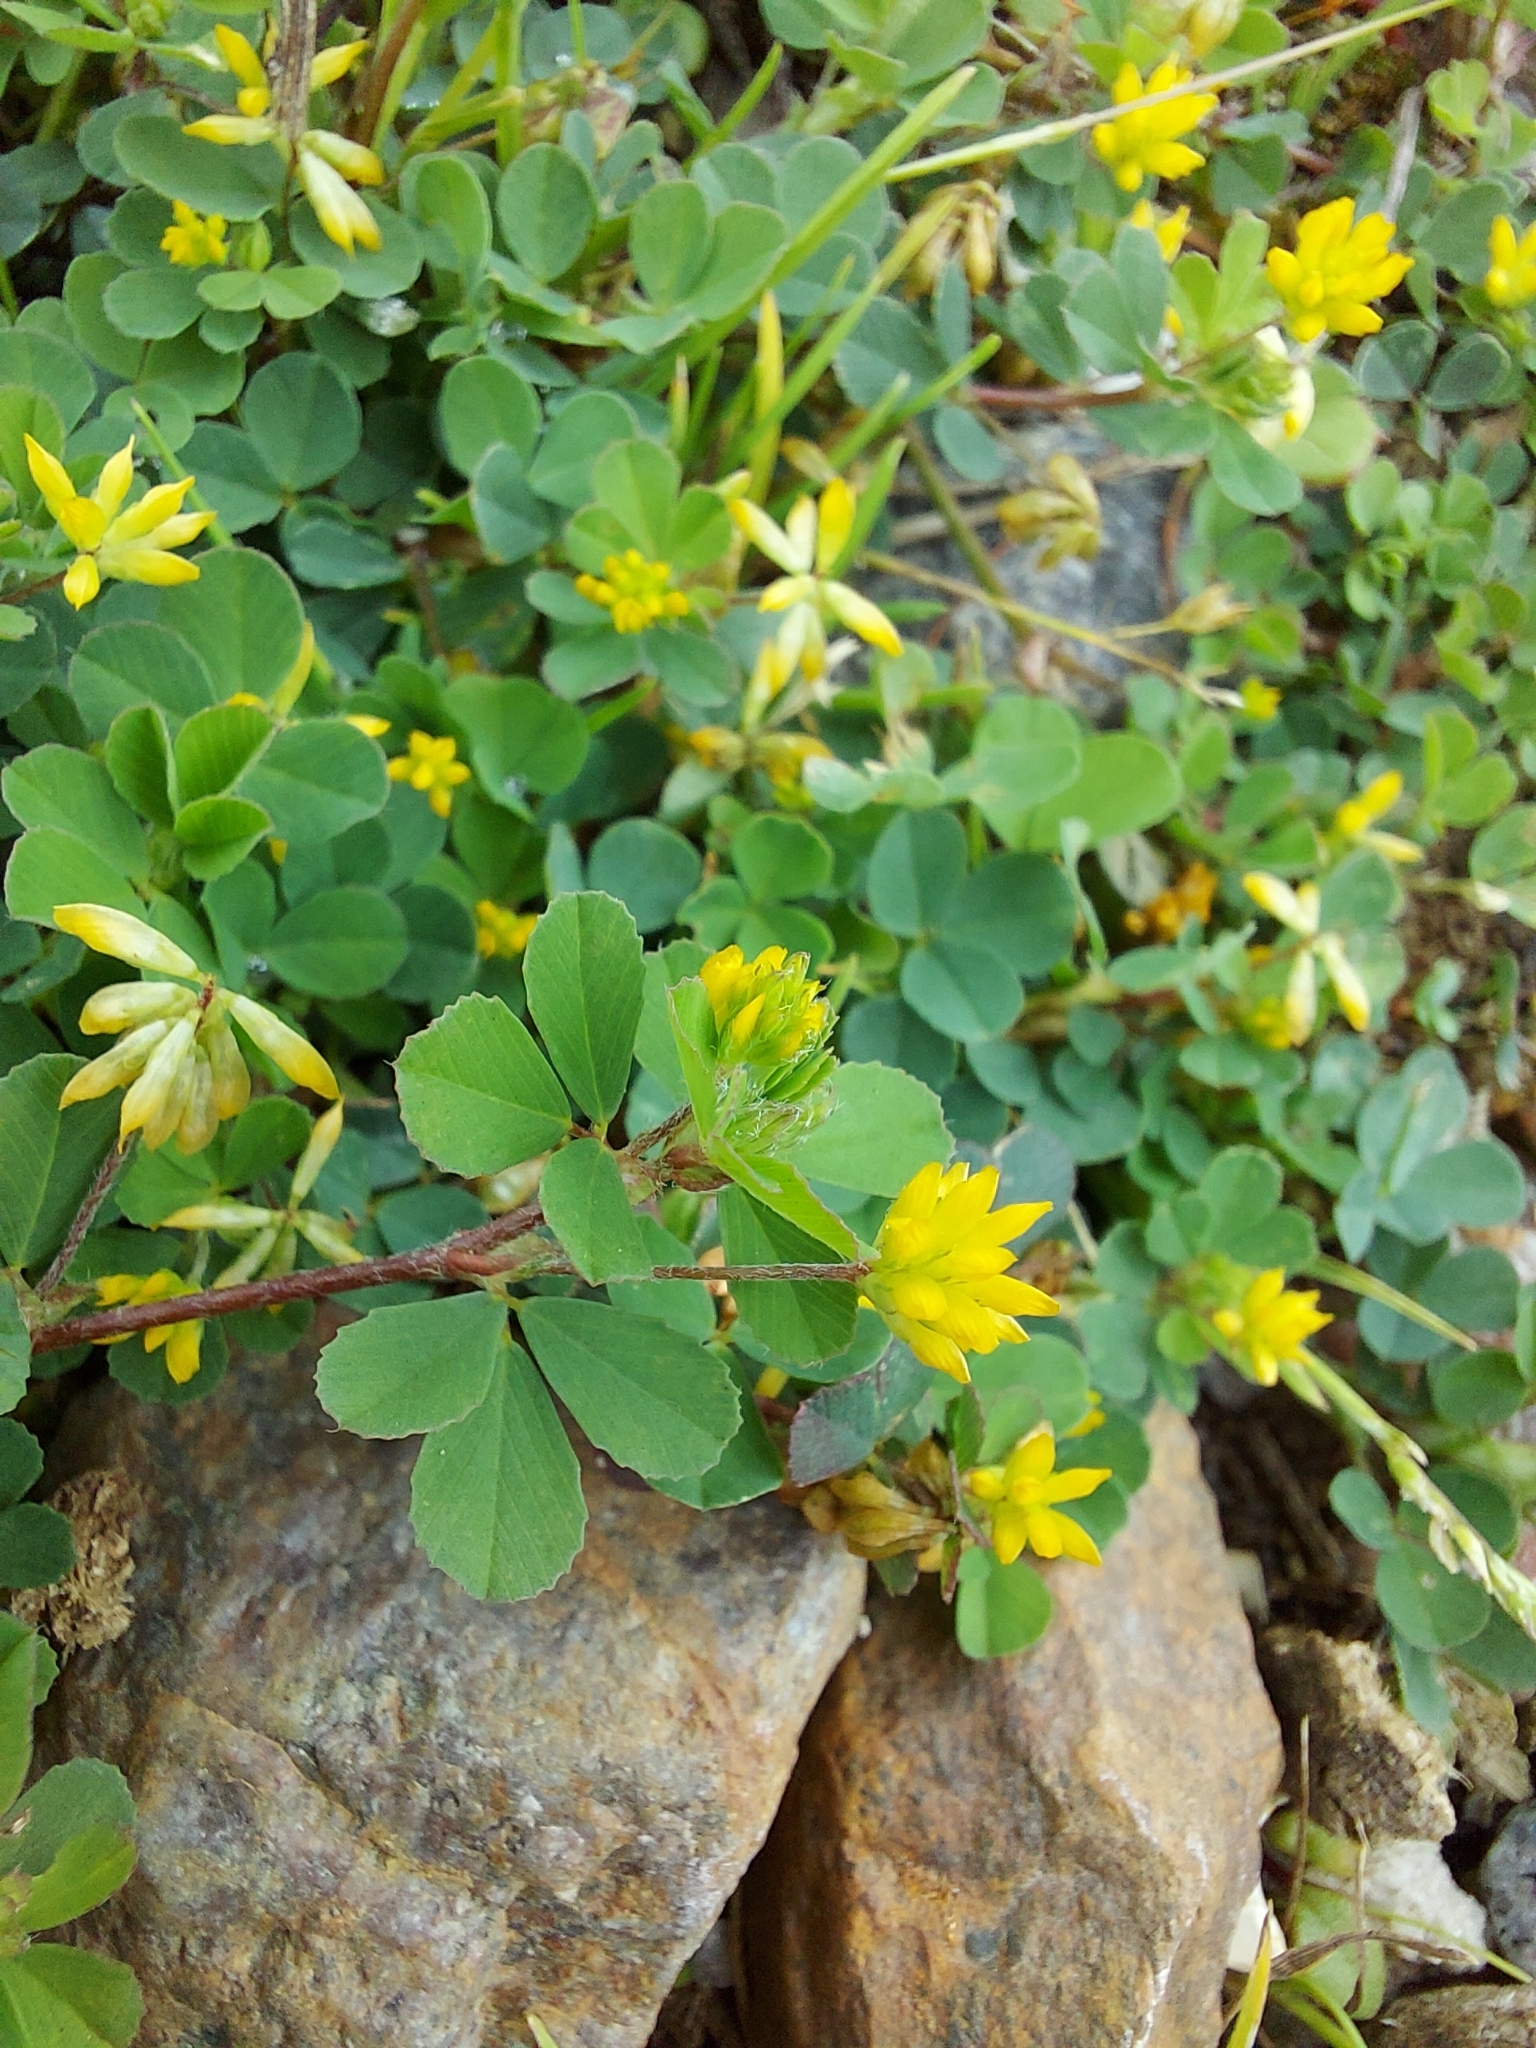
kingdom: Plantae
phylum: Tracheophyta
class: Magnoliopsida
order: Fabales
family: Fabaceae
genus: Trifolium
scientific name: Trifolium dubium
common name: Suckling clover
